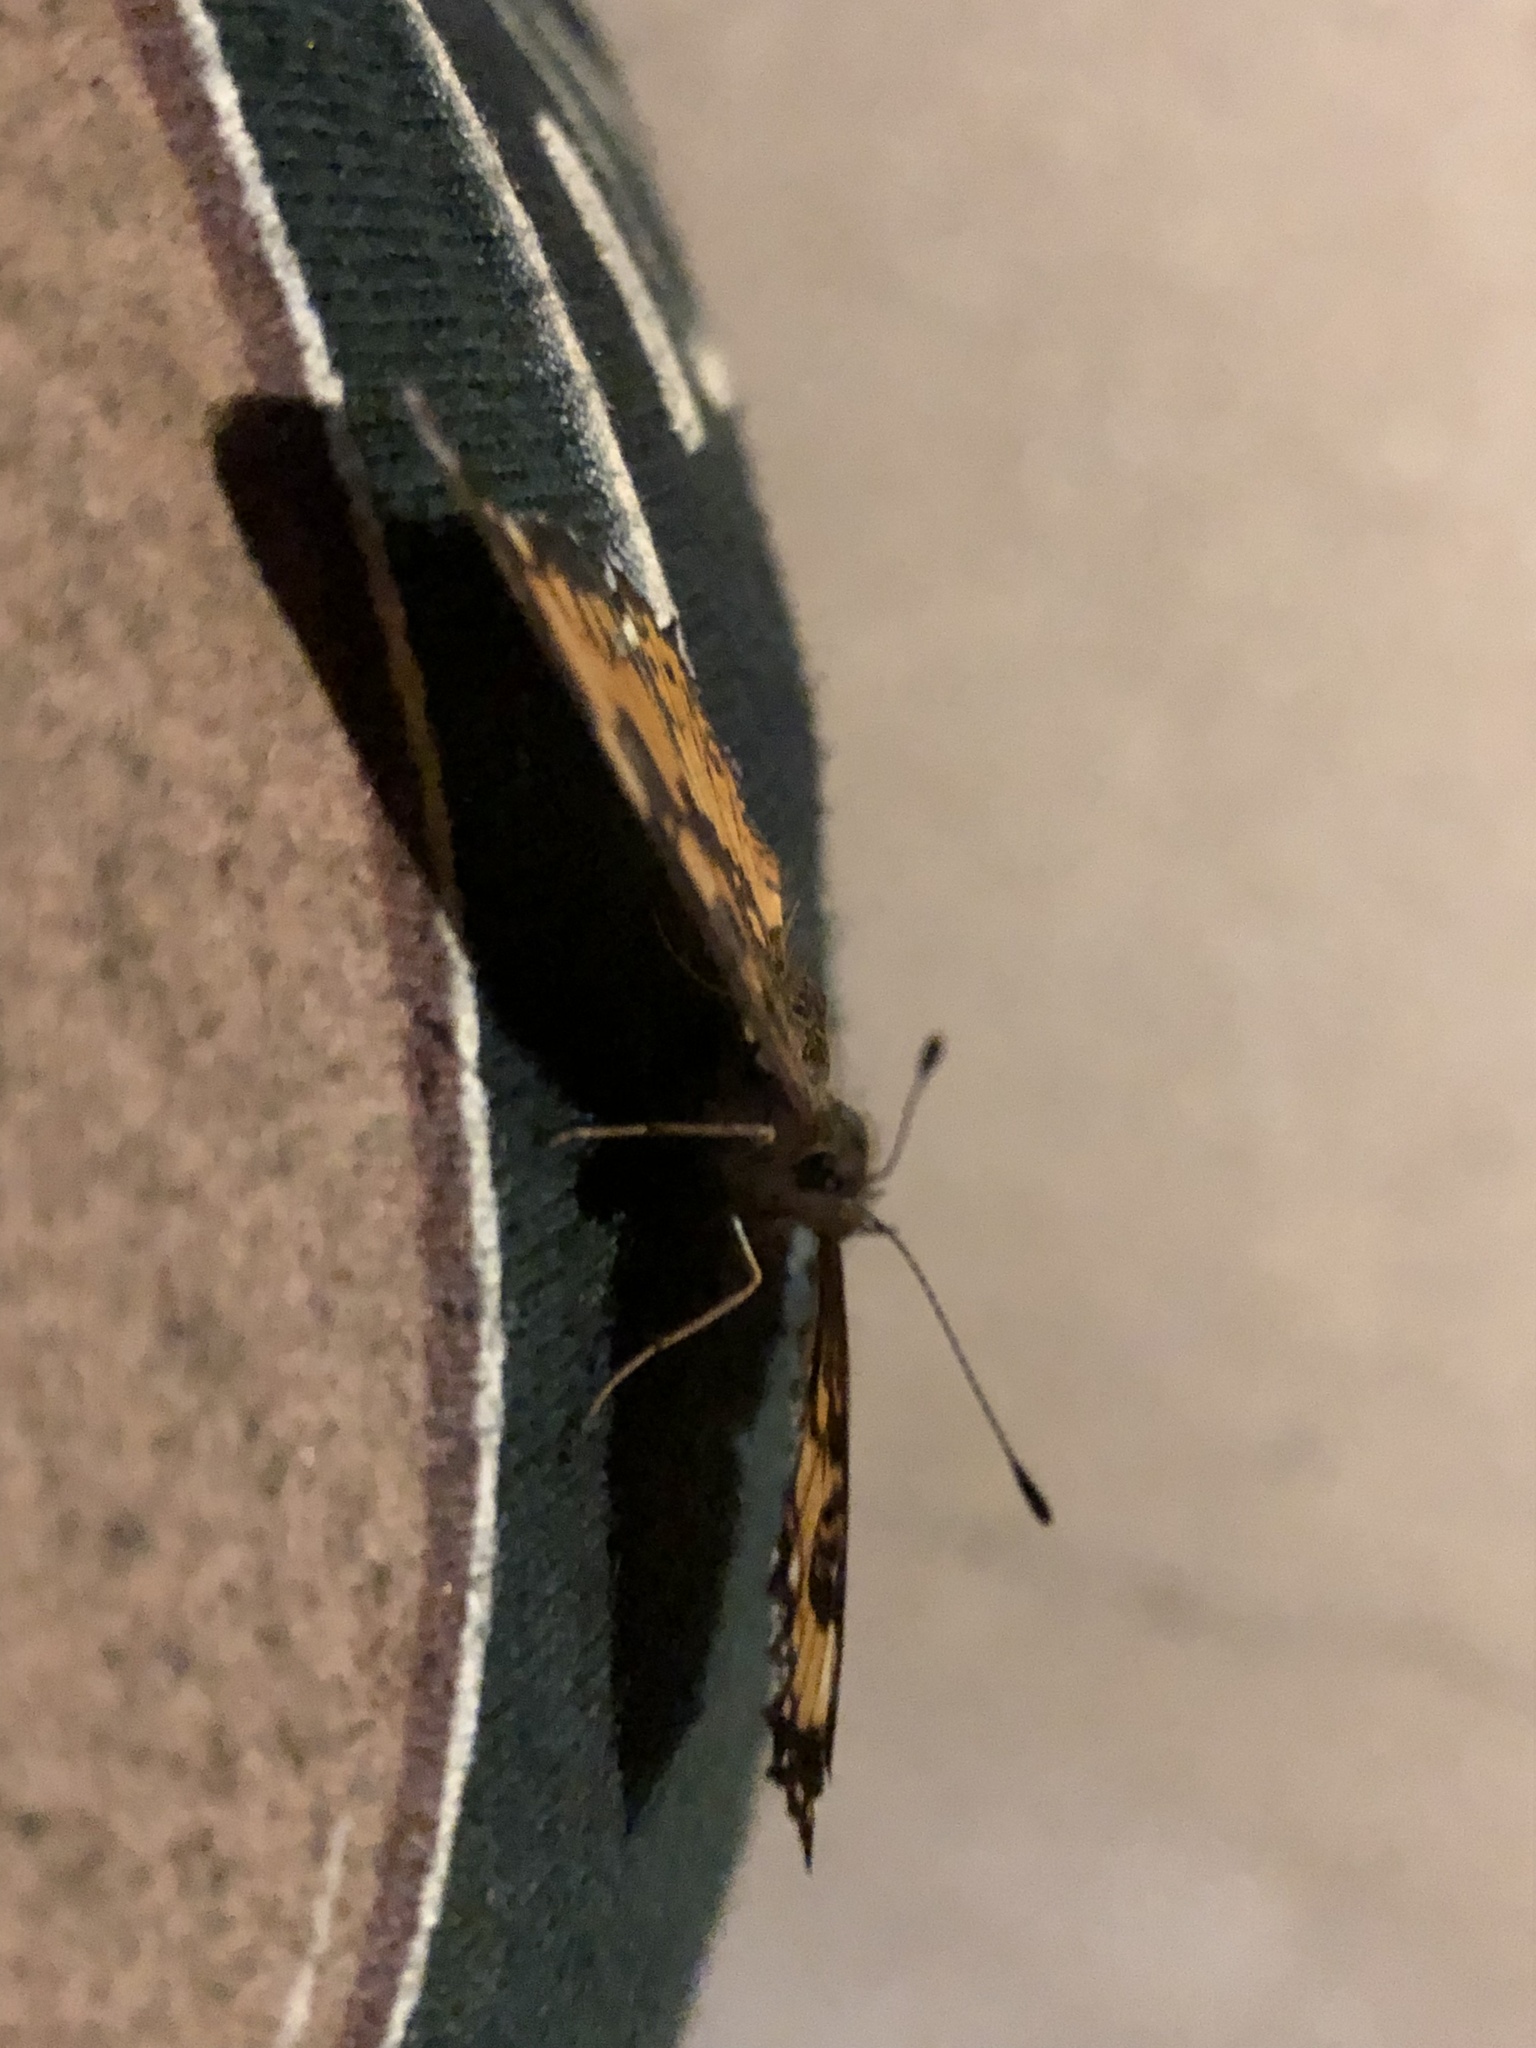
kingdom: Animalia
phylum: Arthropoda
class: Insecta
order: Lepidoptera
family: Nymphalidae
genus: Chlosyne
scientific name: Chlosyne nycteis
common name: Silvery checkerspot
